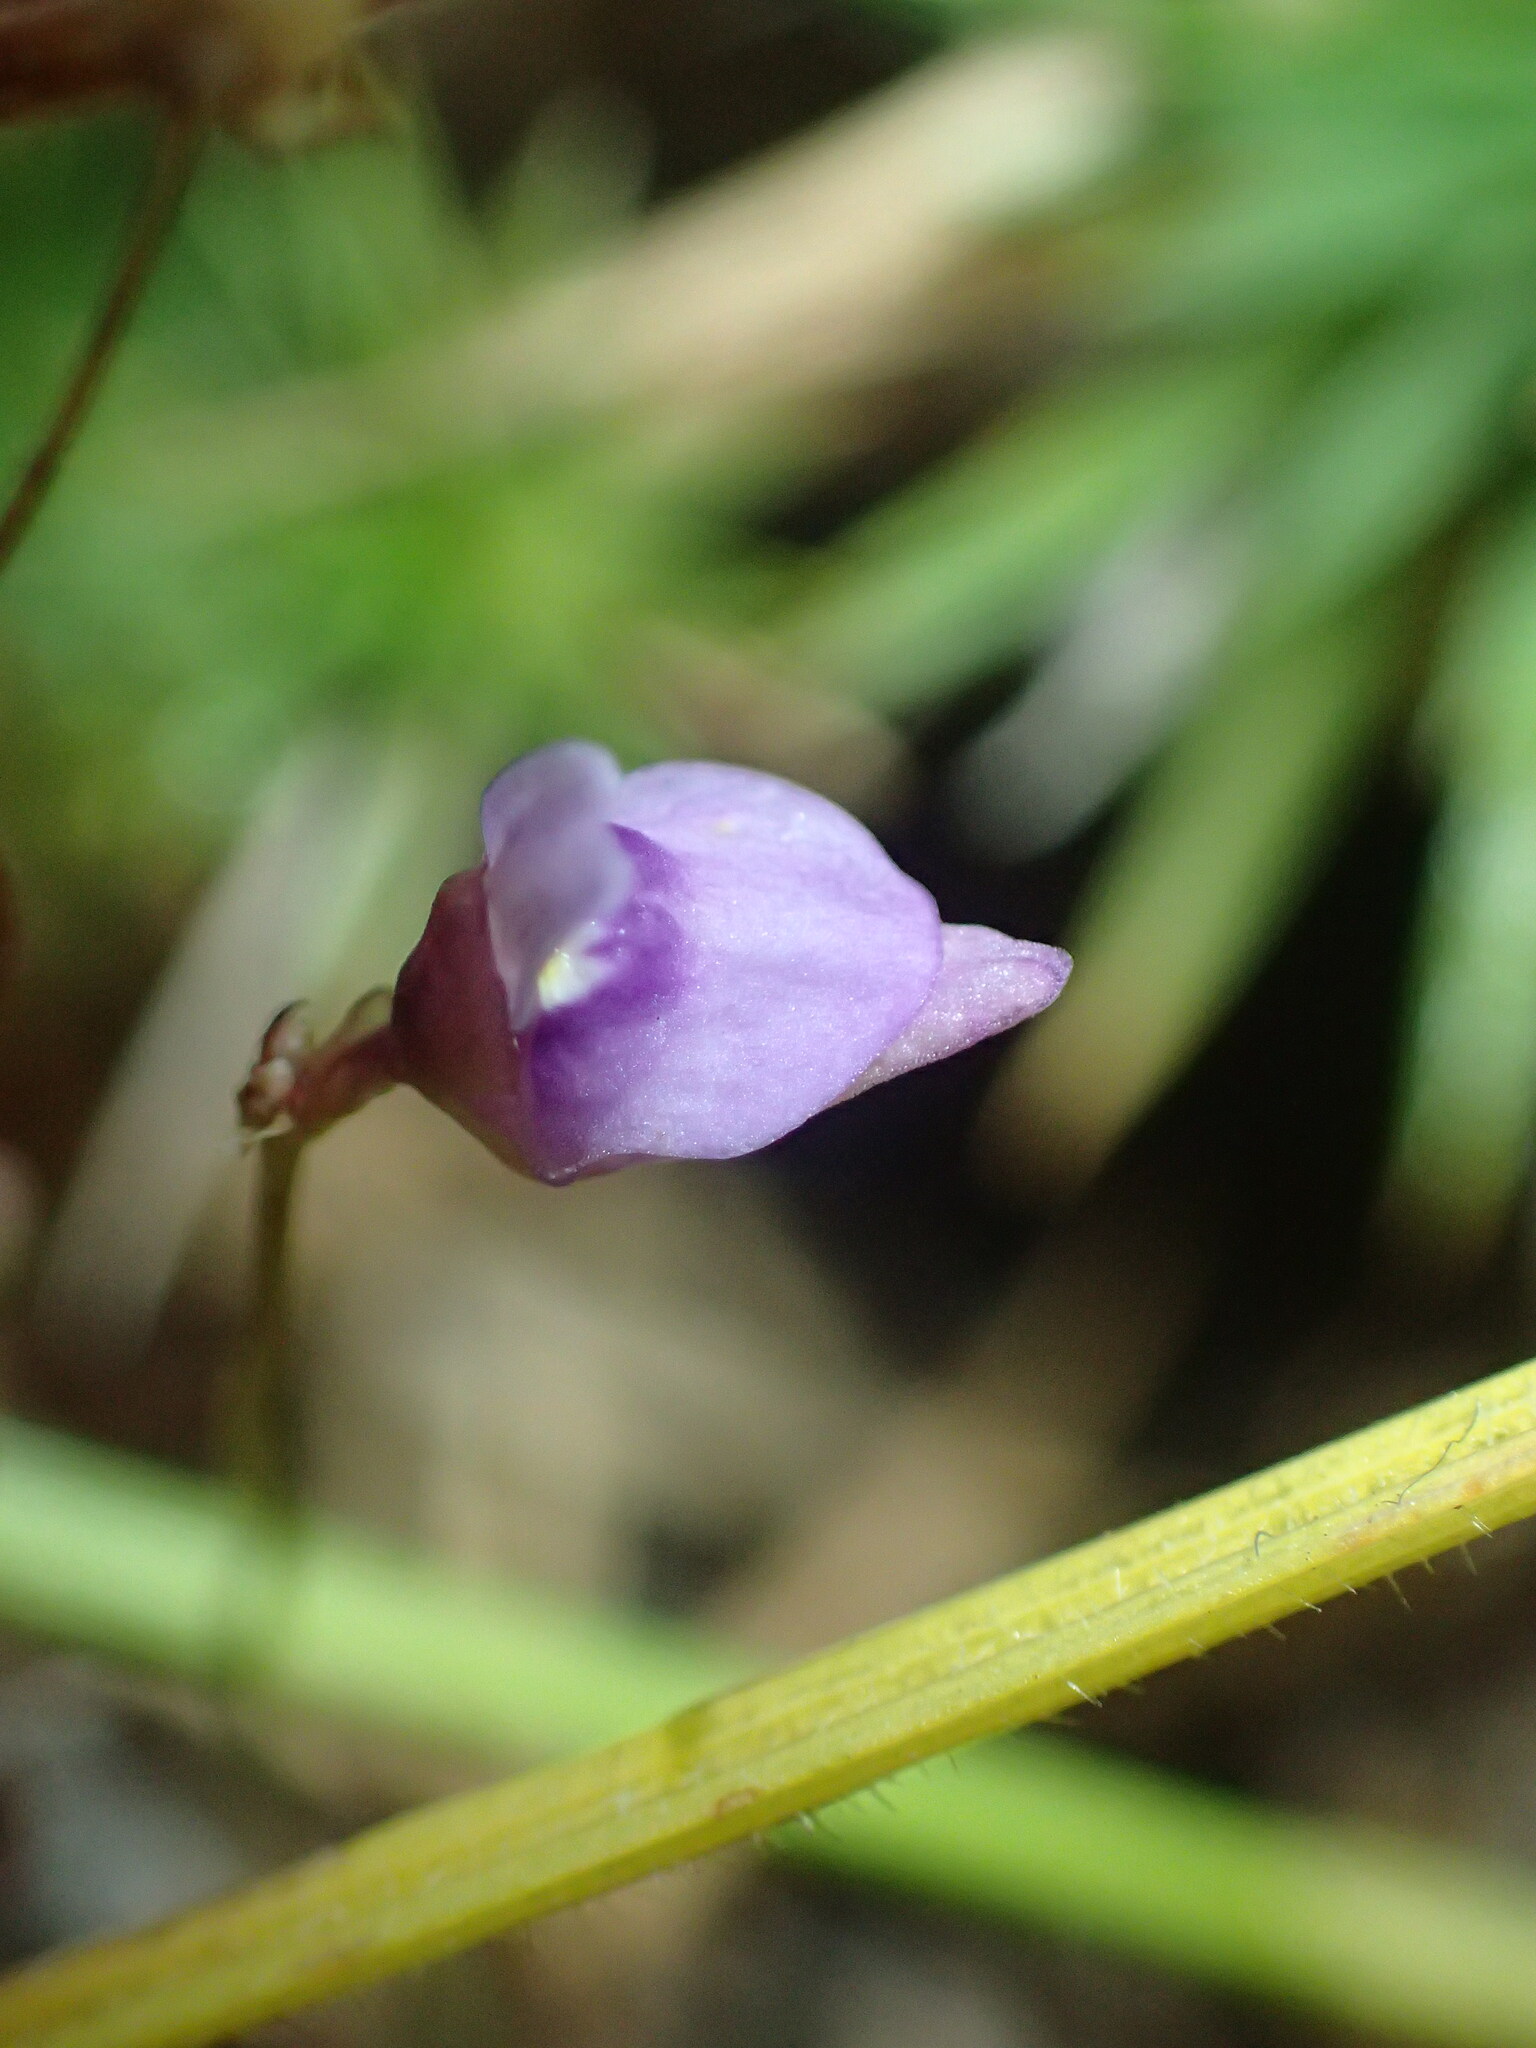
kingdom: Plantae
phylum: Tracheophyta
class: Magnoliopsida
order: Lamiales
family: Lentibulariaceae
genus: Utricularia
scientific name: Utricularia caerulea
